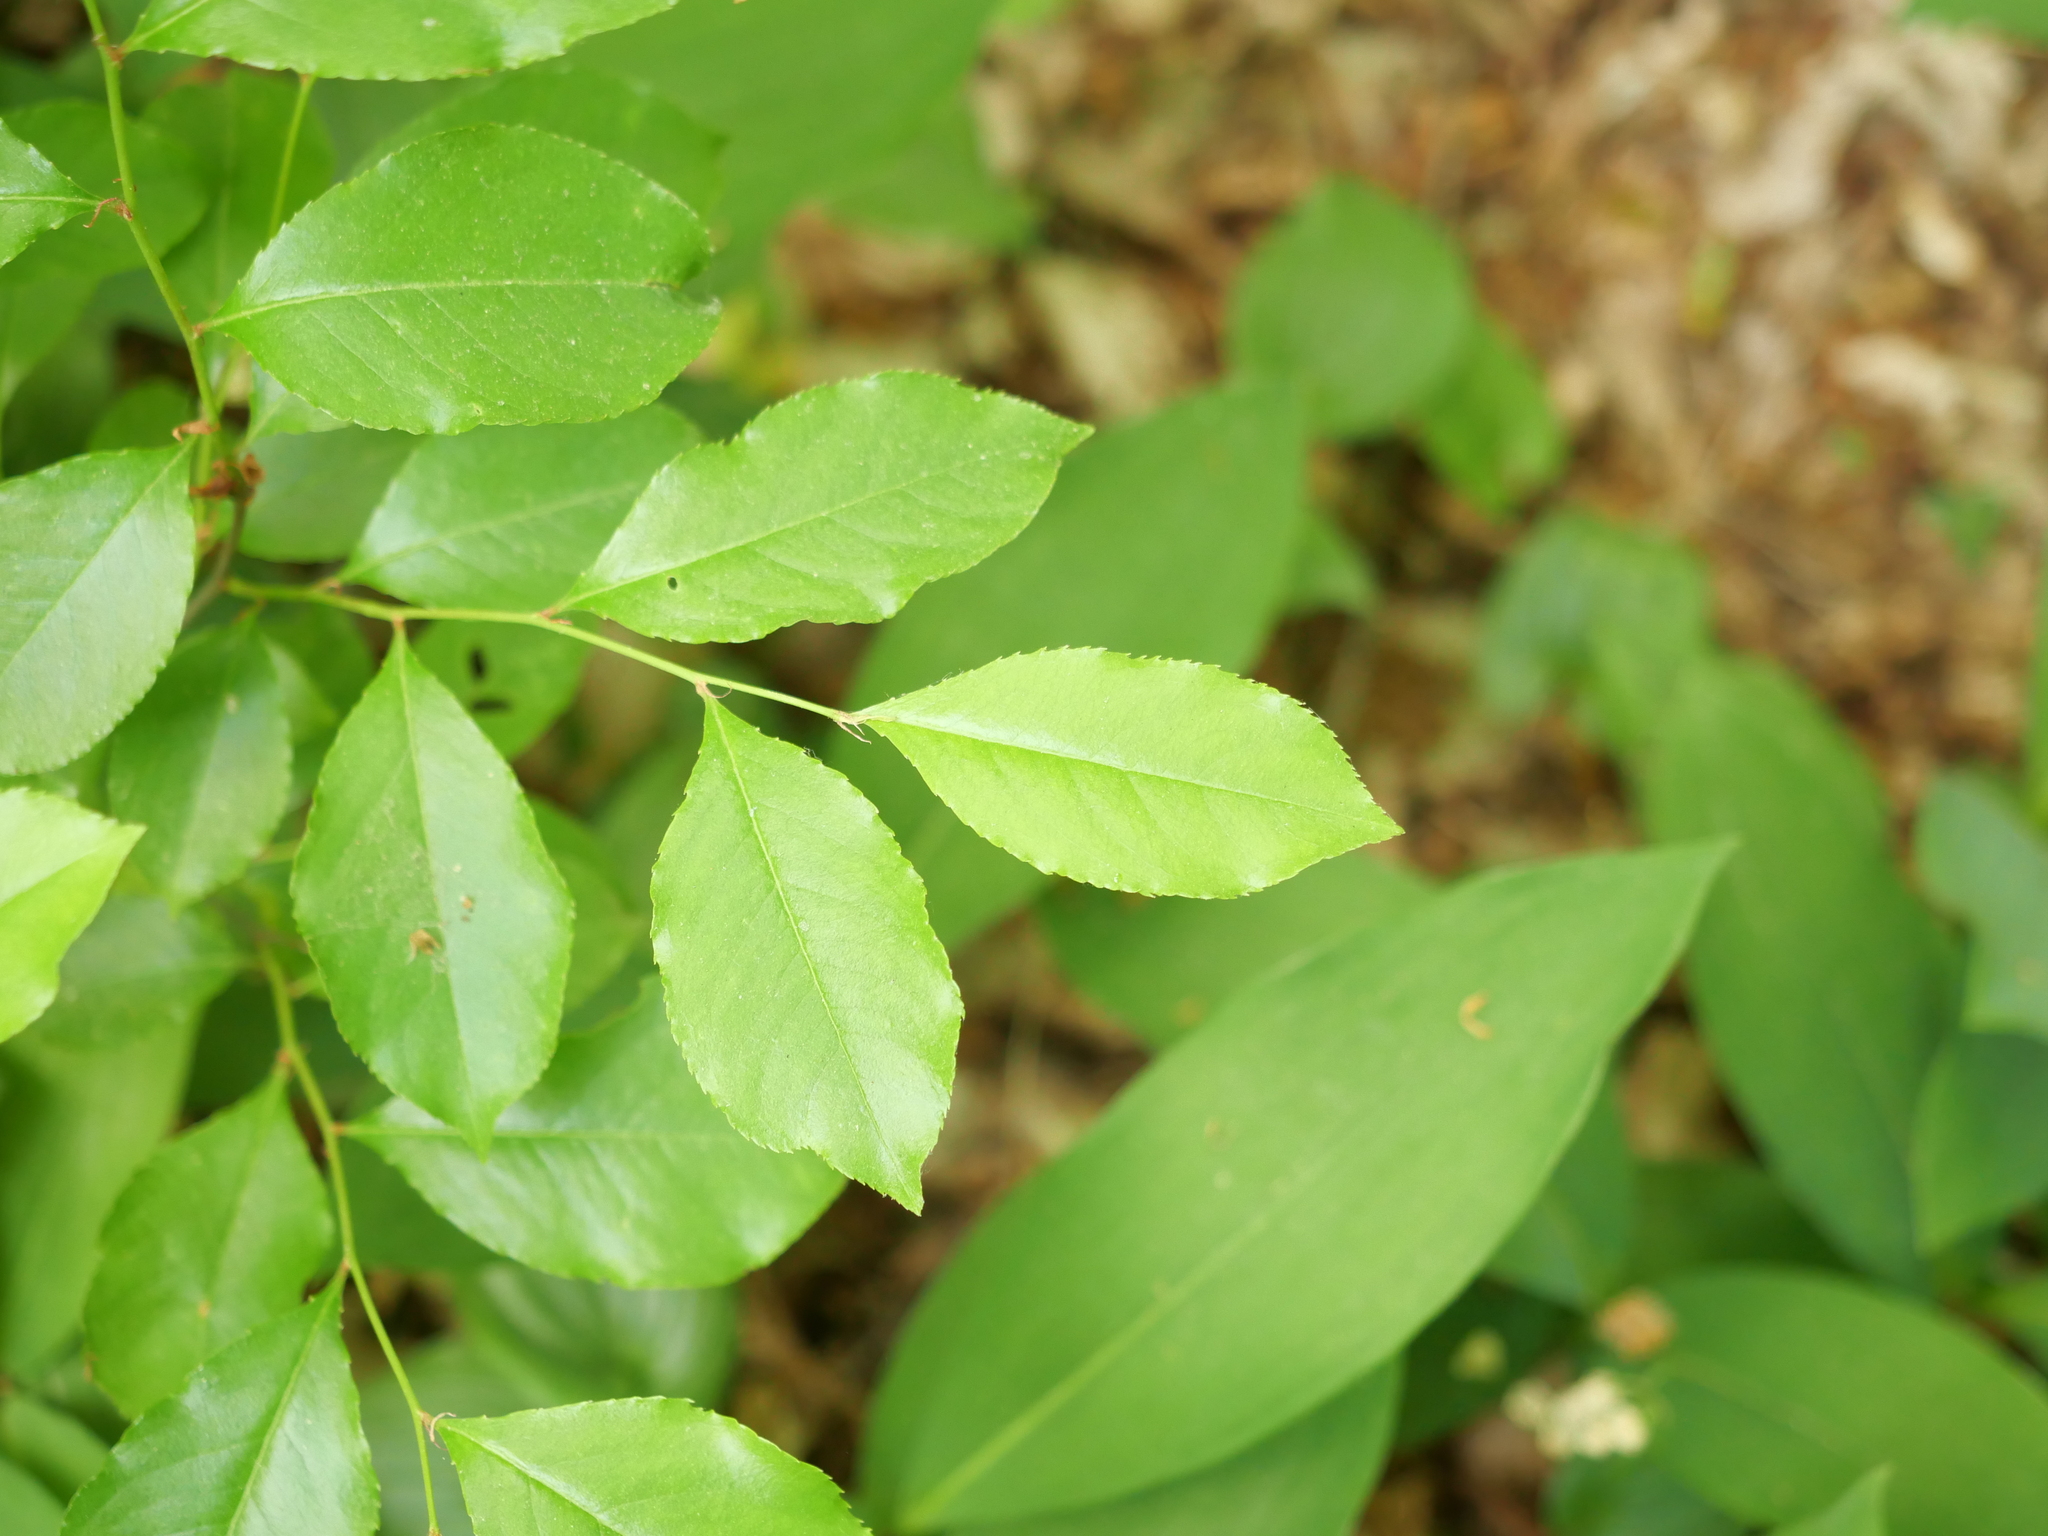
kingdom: Plantae
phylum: Tracheophyta
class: Magnoliopsida
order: Rosales
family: Rosaceae
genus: Prunus
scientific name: Prunus serotina
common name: Black cherry
